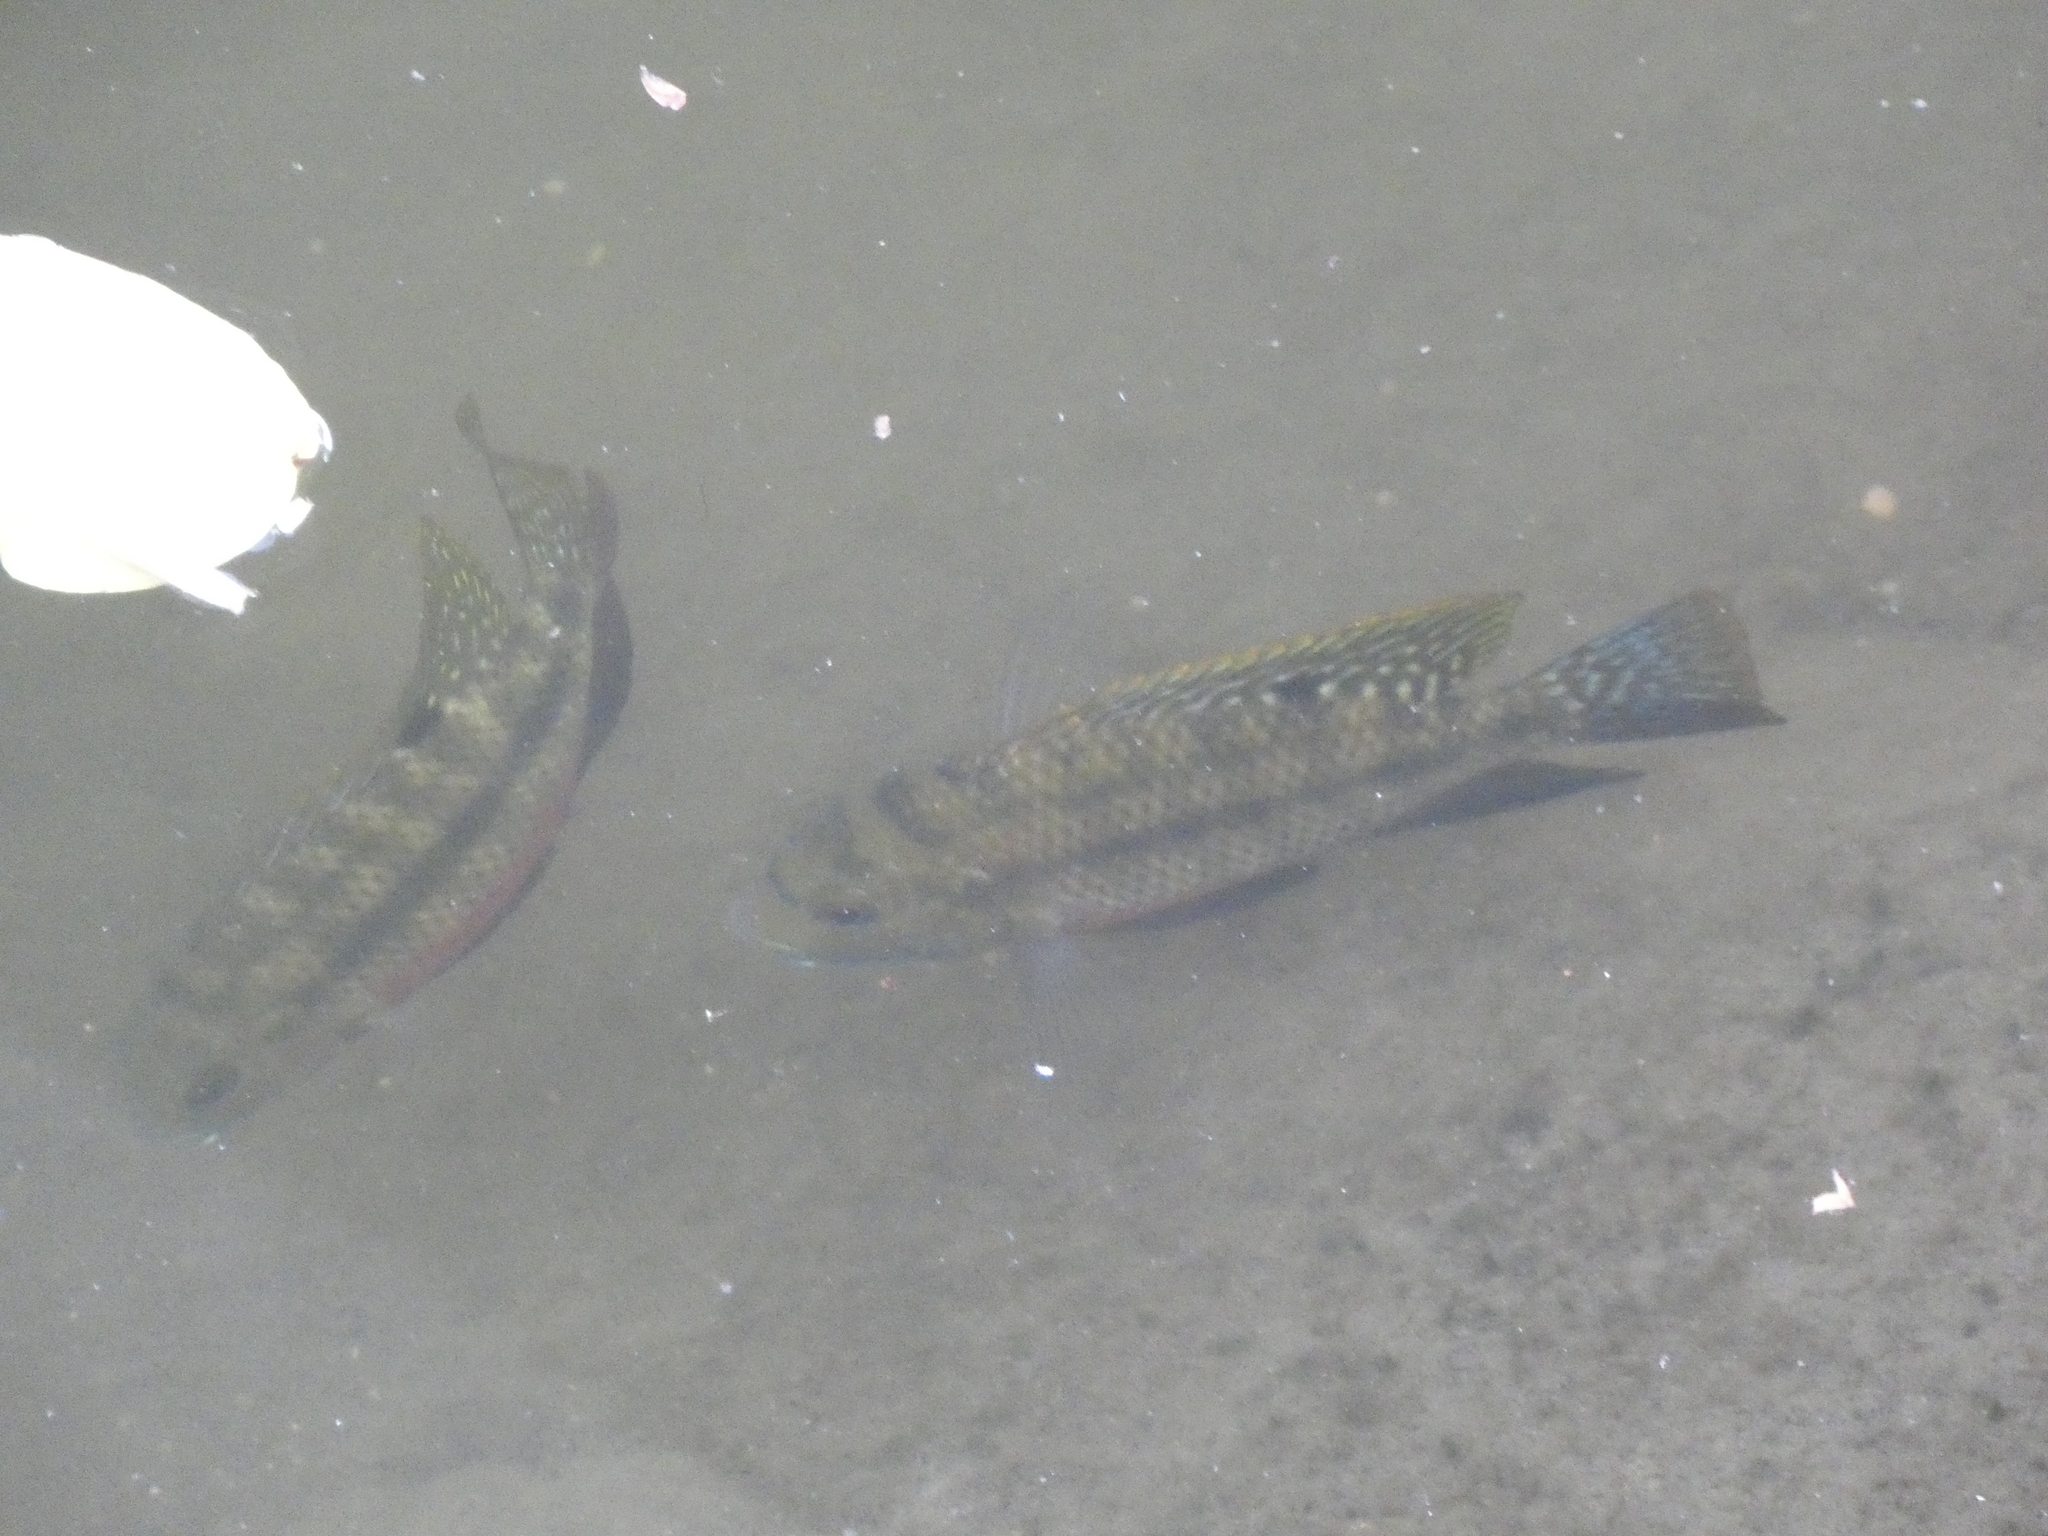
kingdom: Animalia
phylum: Chordata
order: Perciformes
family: Cichlidae
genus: Coptodon
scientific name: Coptodon zillii
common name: Redbelly tilapia
